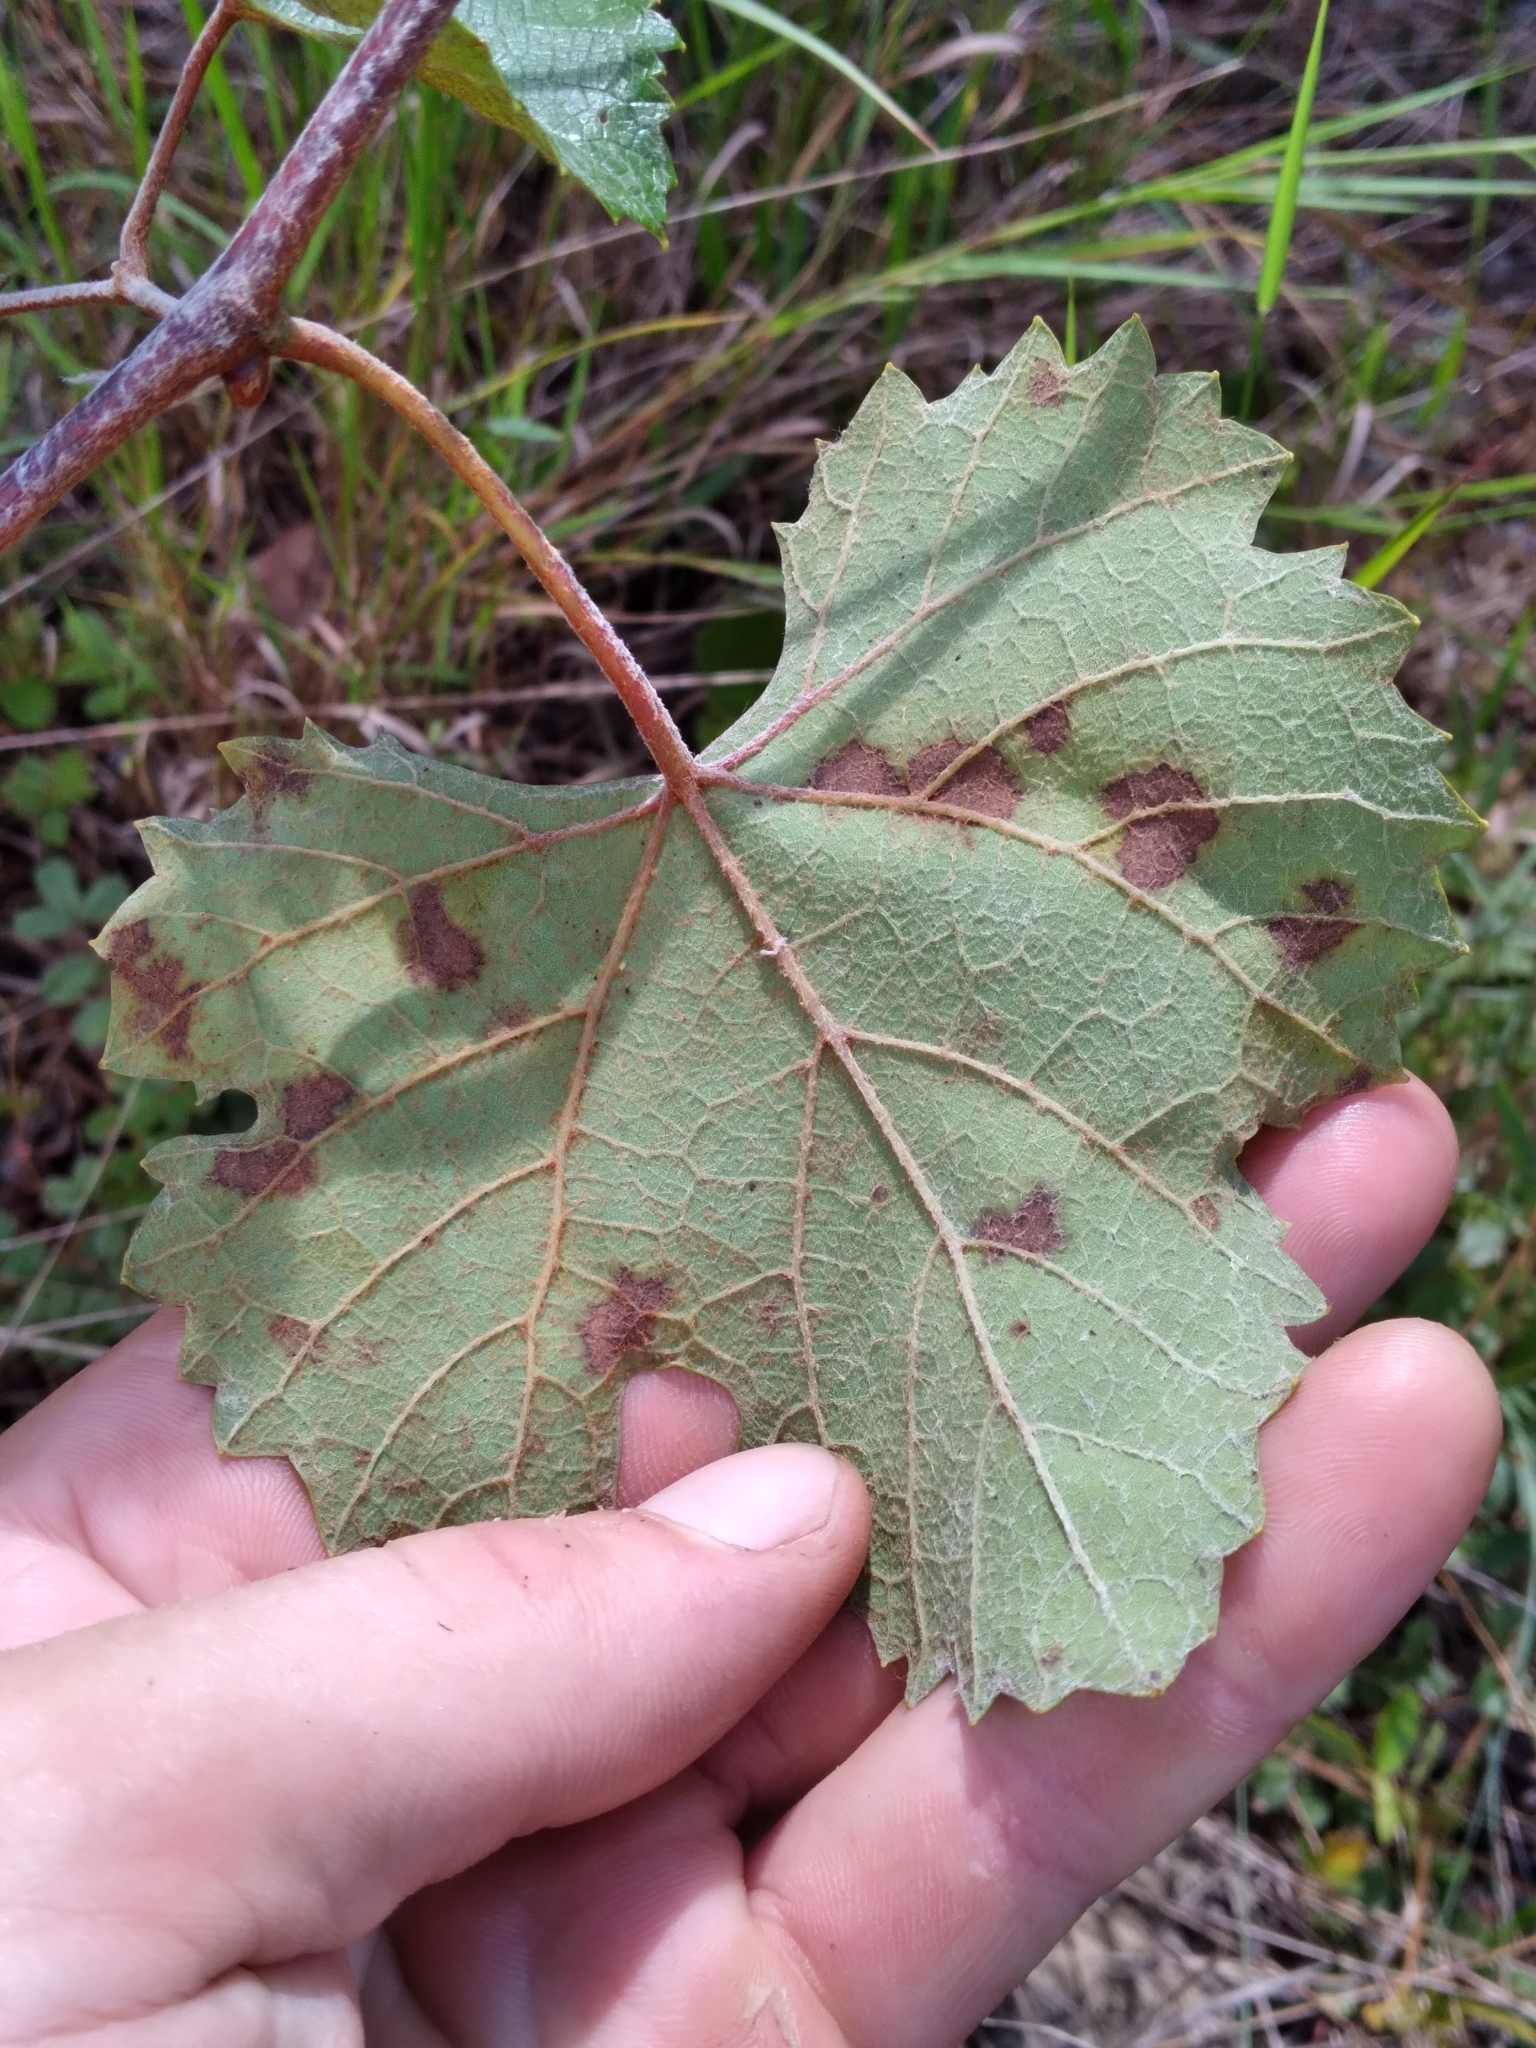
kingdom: Plantae
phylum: Tracheophyta
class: Magnoliopsida
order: Vitales
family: Vitaceae
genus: Vitis
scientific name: Vitis
